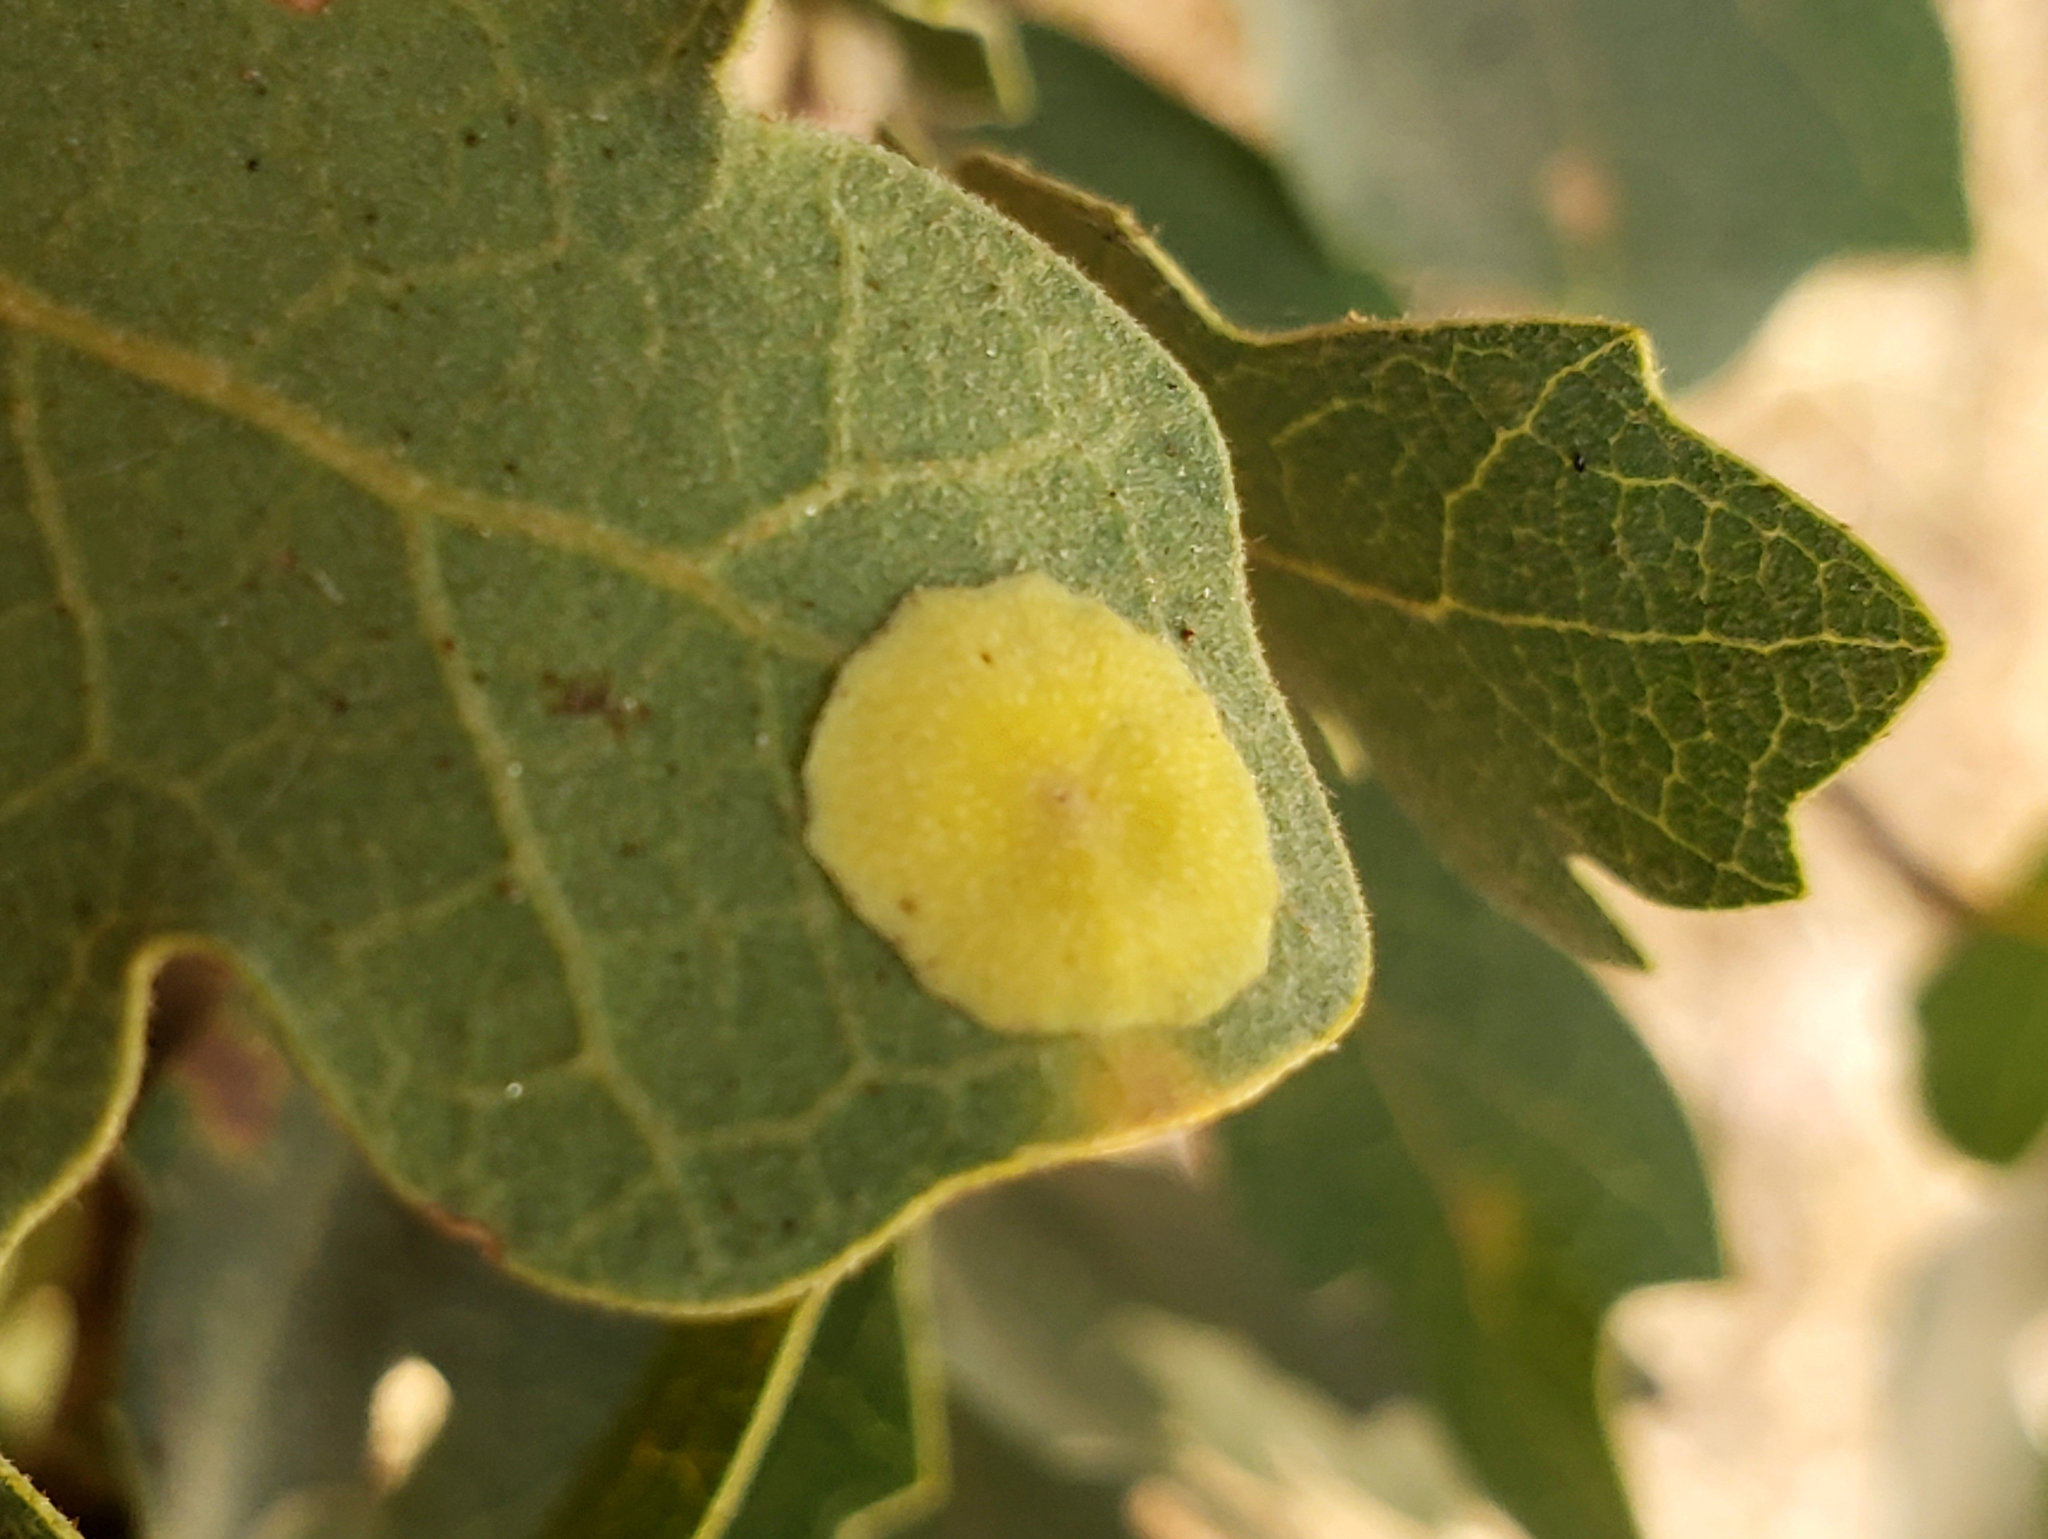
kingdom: Animalia
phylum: Arthropoda
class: Insecta
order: Hymenoptera
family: Cynipidae
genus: Andricus
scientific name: Andricus
